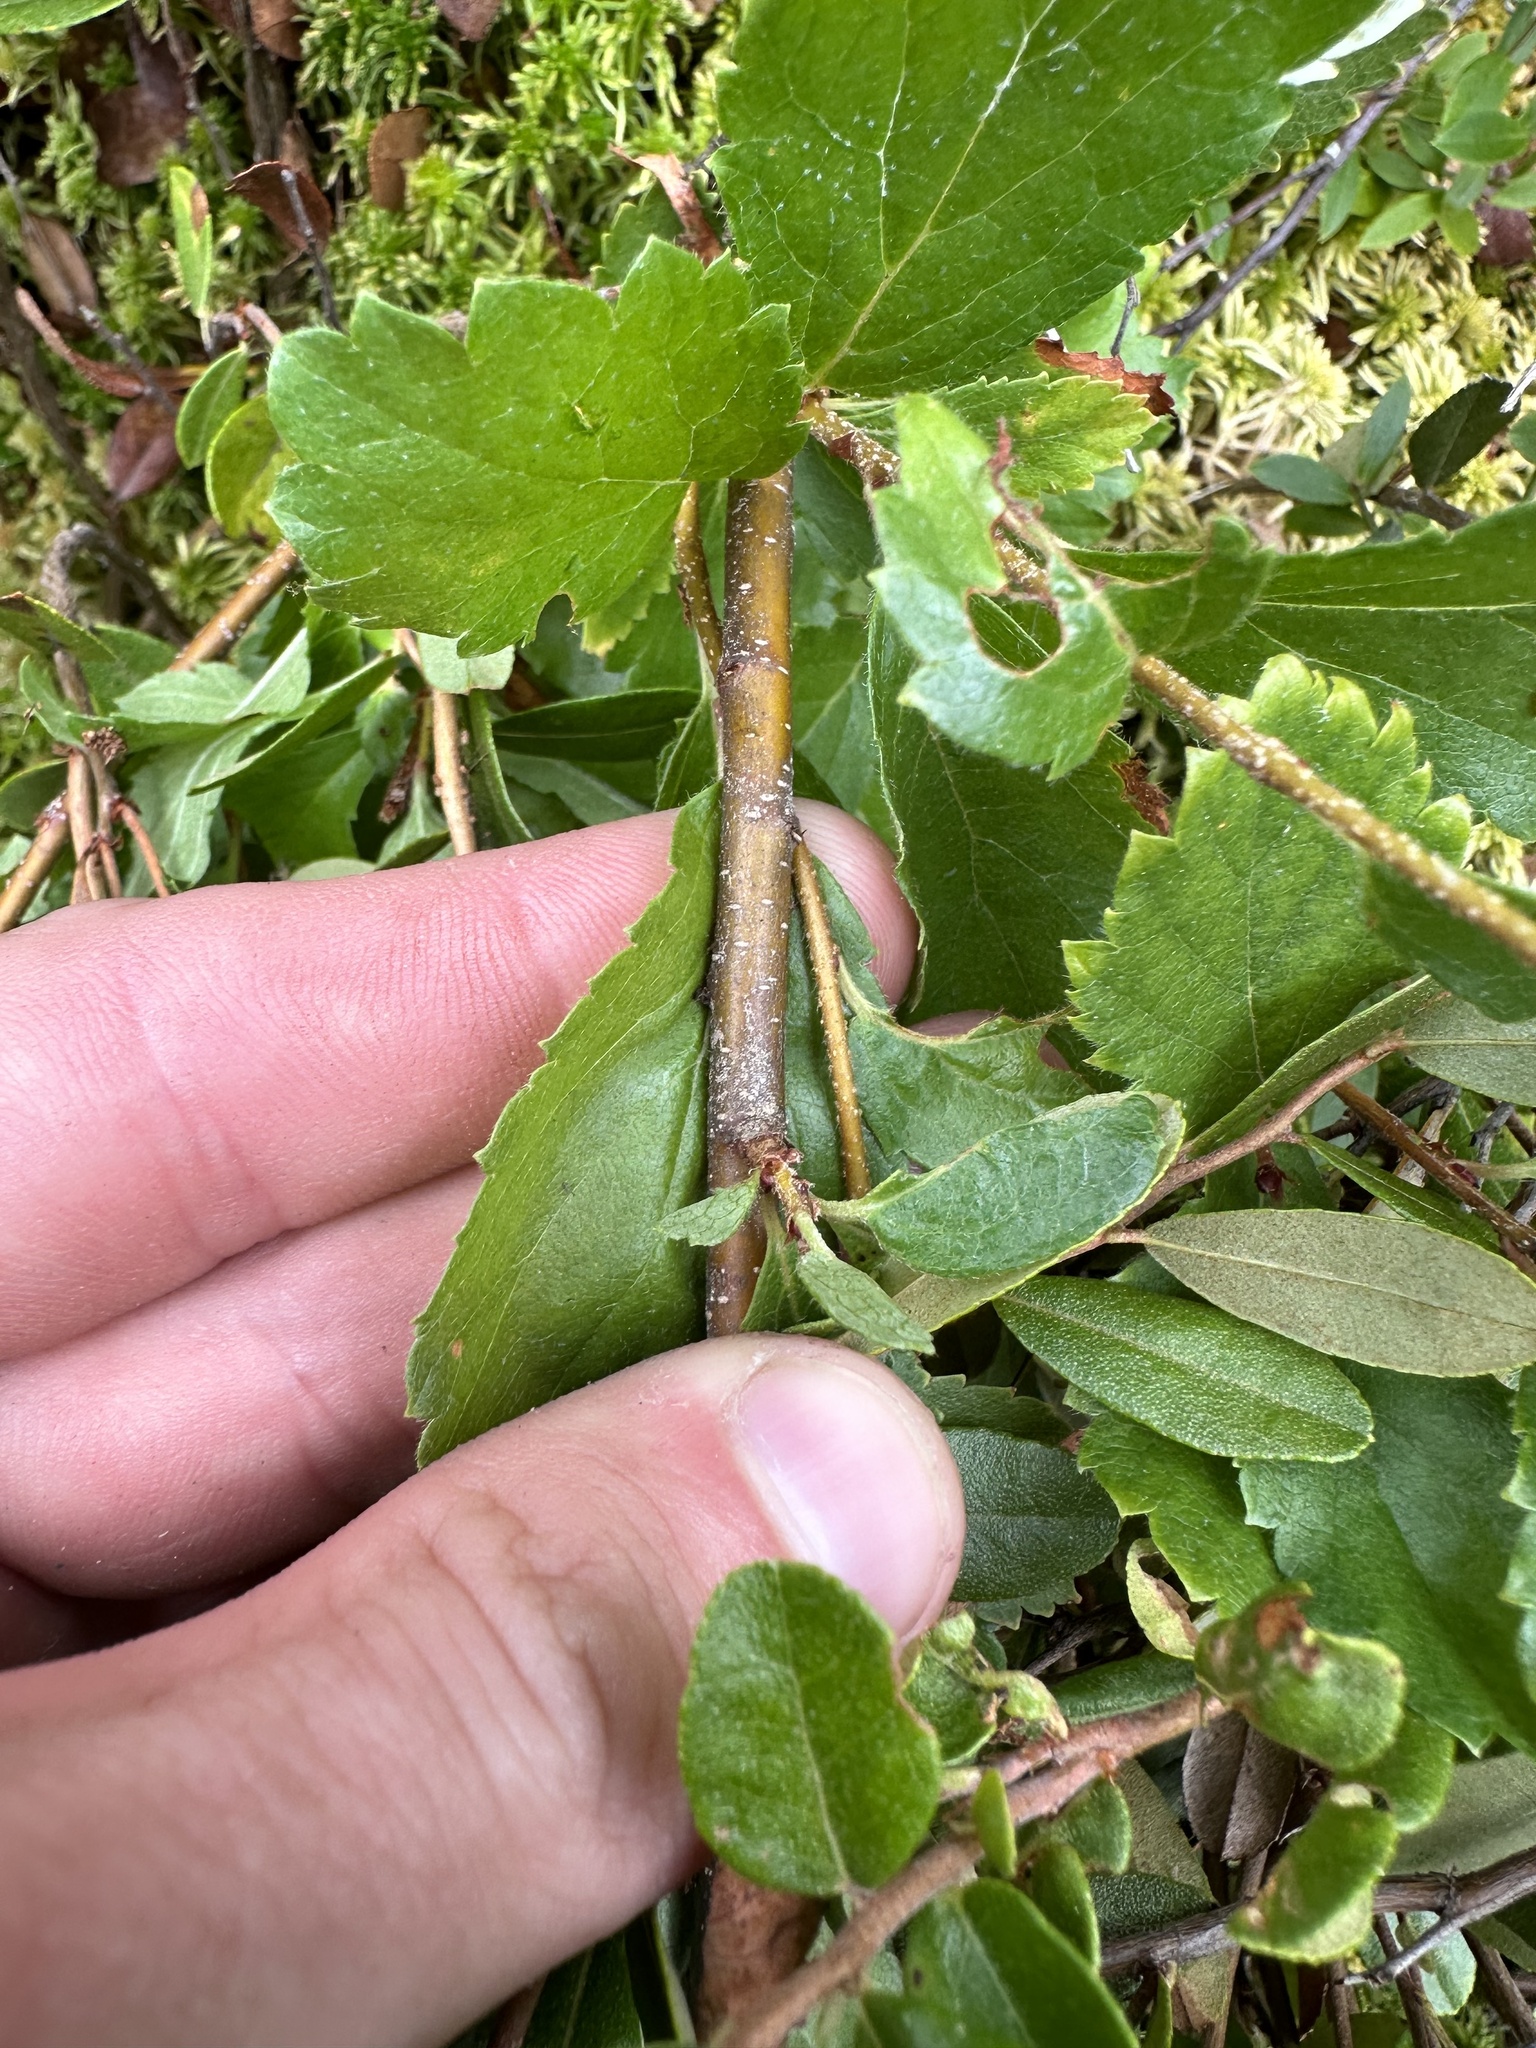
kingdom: Plantae
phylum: Tracheophyta
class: Magnoliopsida
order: Fagales
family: Betulaceae
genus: Betula
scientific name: Betula pumila
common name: Bog birch
